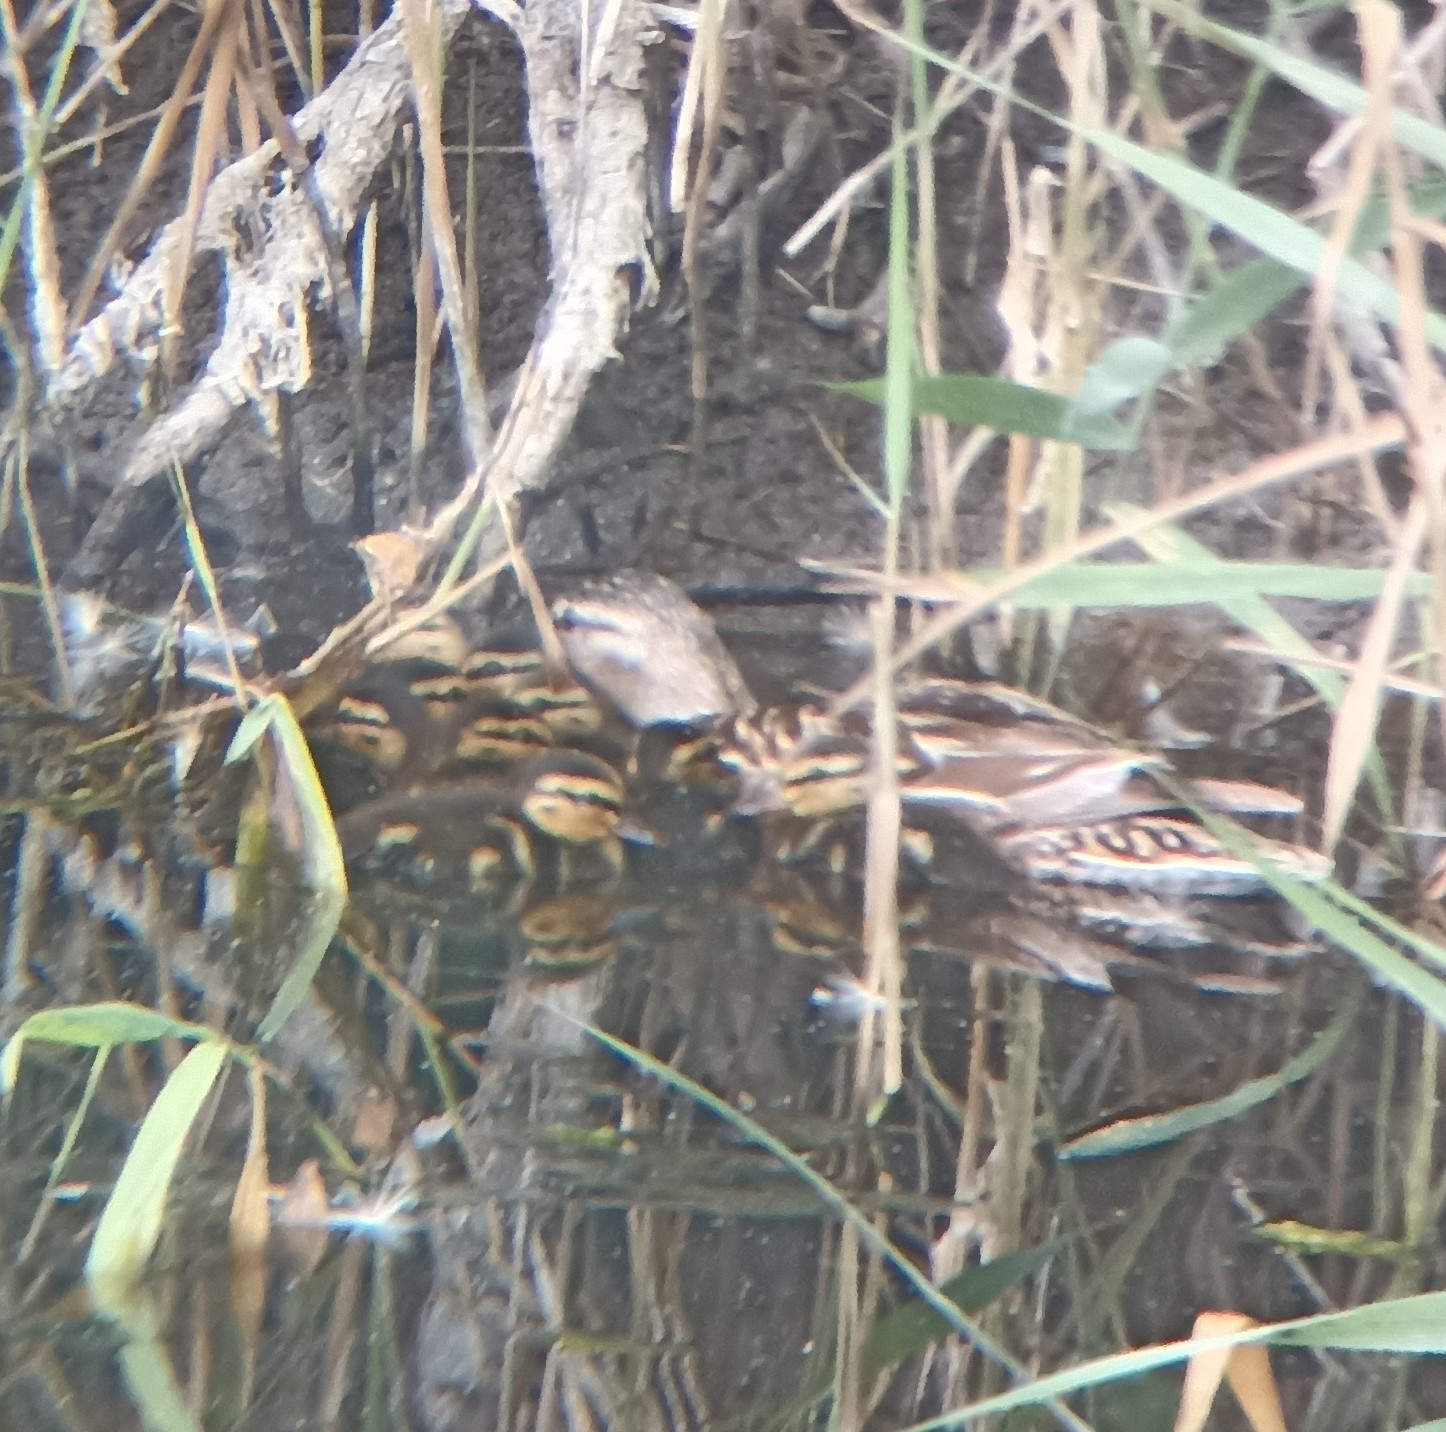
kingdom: Animalia
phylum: Chordata
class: Aves
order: Anseriformes
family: Anatidae
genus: Anas
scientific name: Anas platyrhynchos
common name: Mallard
